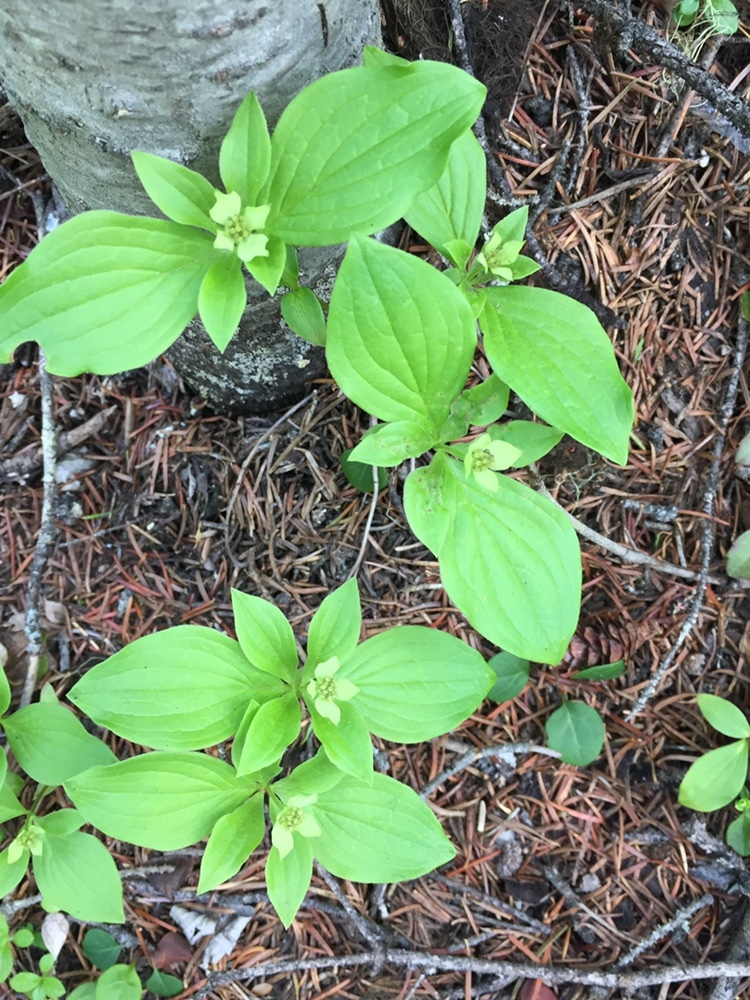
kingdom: Plantae
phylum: Tracheophyta
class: Magnoliopsida
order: Cornales
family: Cornaceae
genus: Cornus
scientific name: Cornus canadensis
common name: Creeping dogwood
